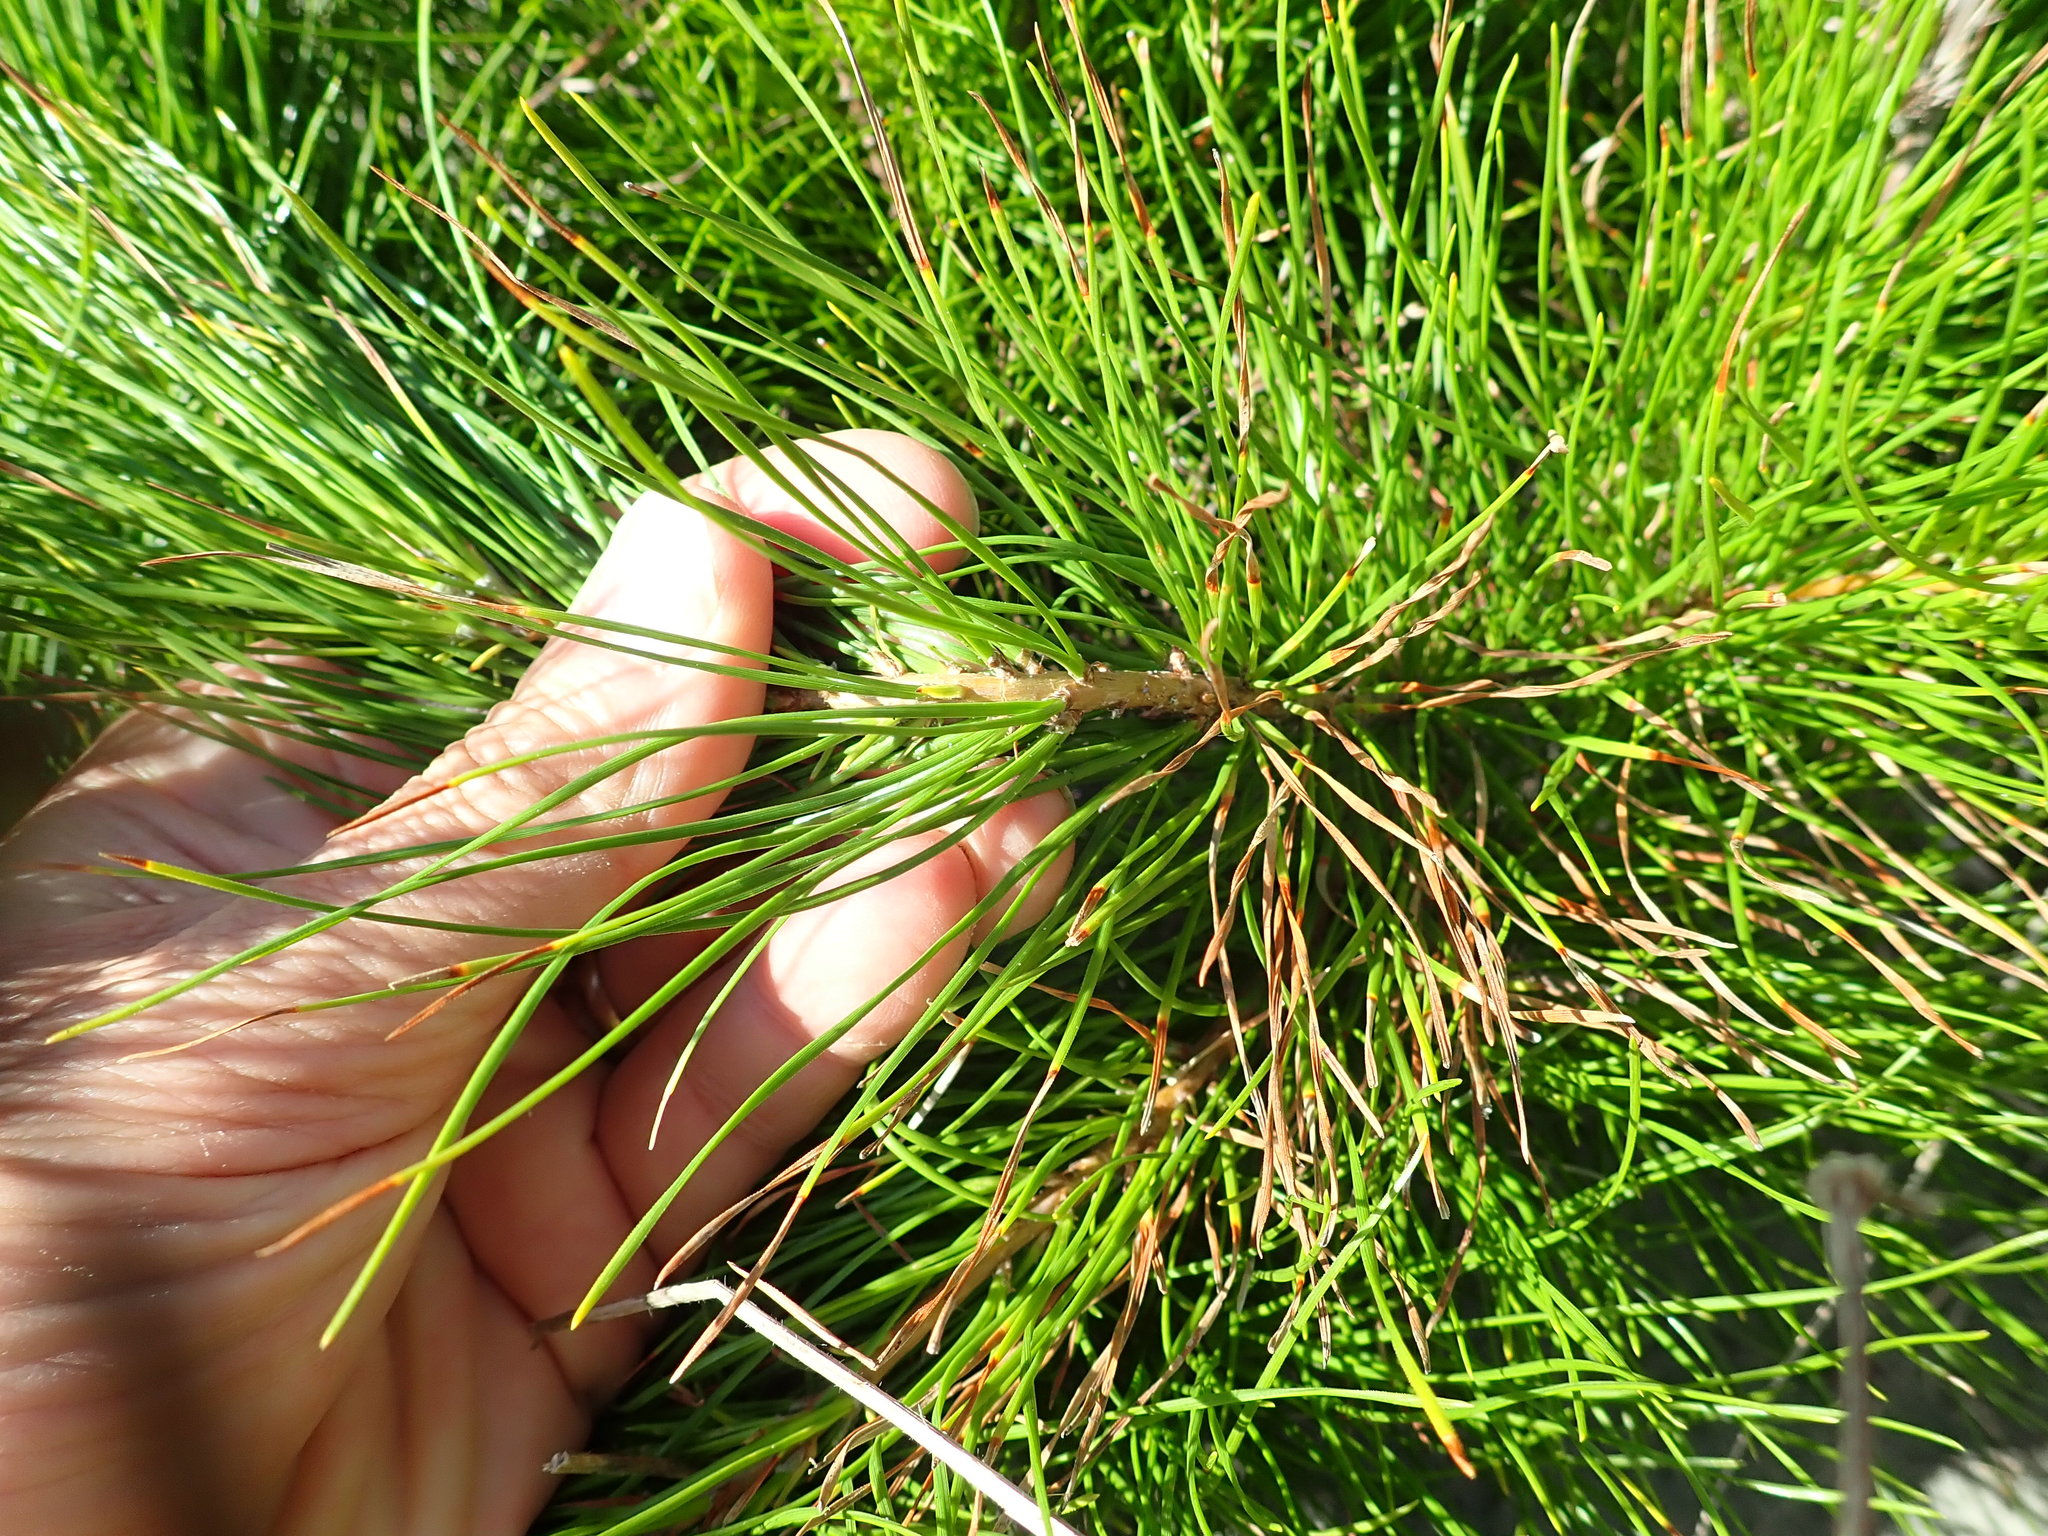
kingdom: Plantae
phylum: Tracheophyta
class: Pinopsida
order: Pinales
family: Pinaceae
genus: Pinus
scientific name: Pinus radiata
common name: Monterey pine
